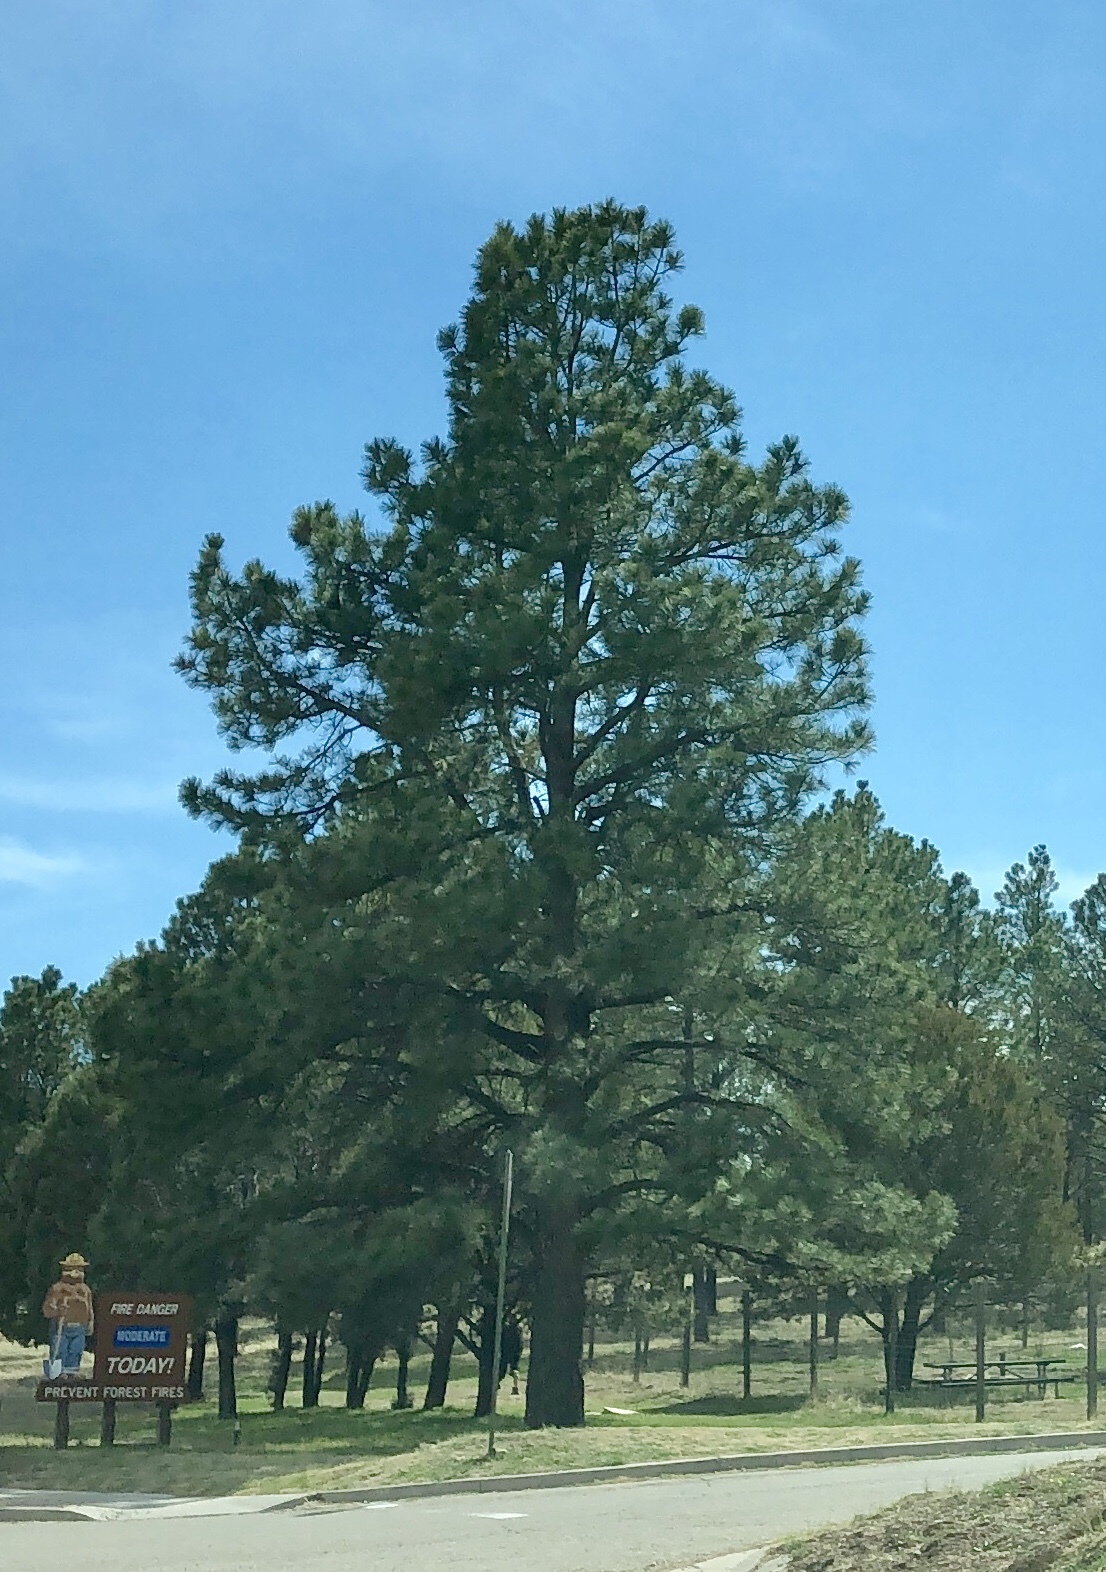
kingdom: Plantae
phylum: Tracheophyta
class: Pinopsida
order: Pinales
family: Pinaceae
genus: Pinus
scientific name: Pinus ponderosa
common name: Western yellow-pine
